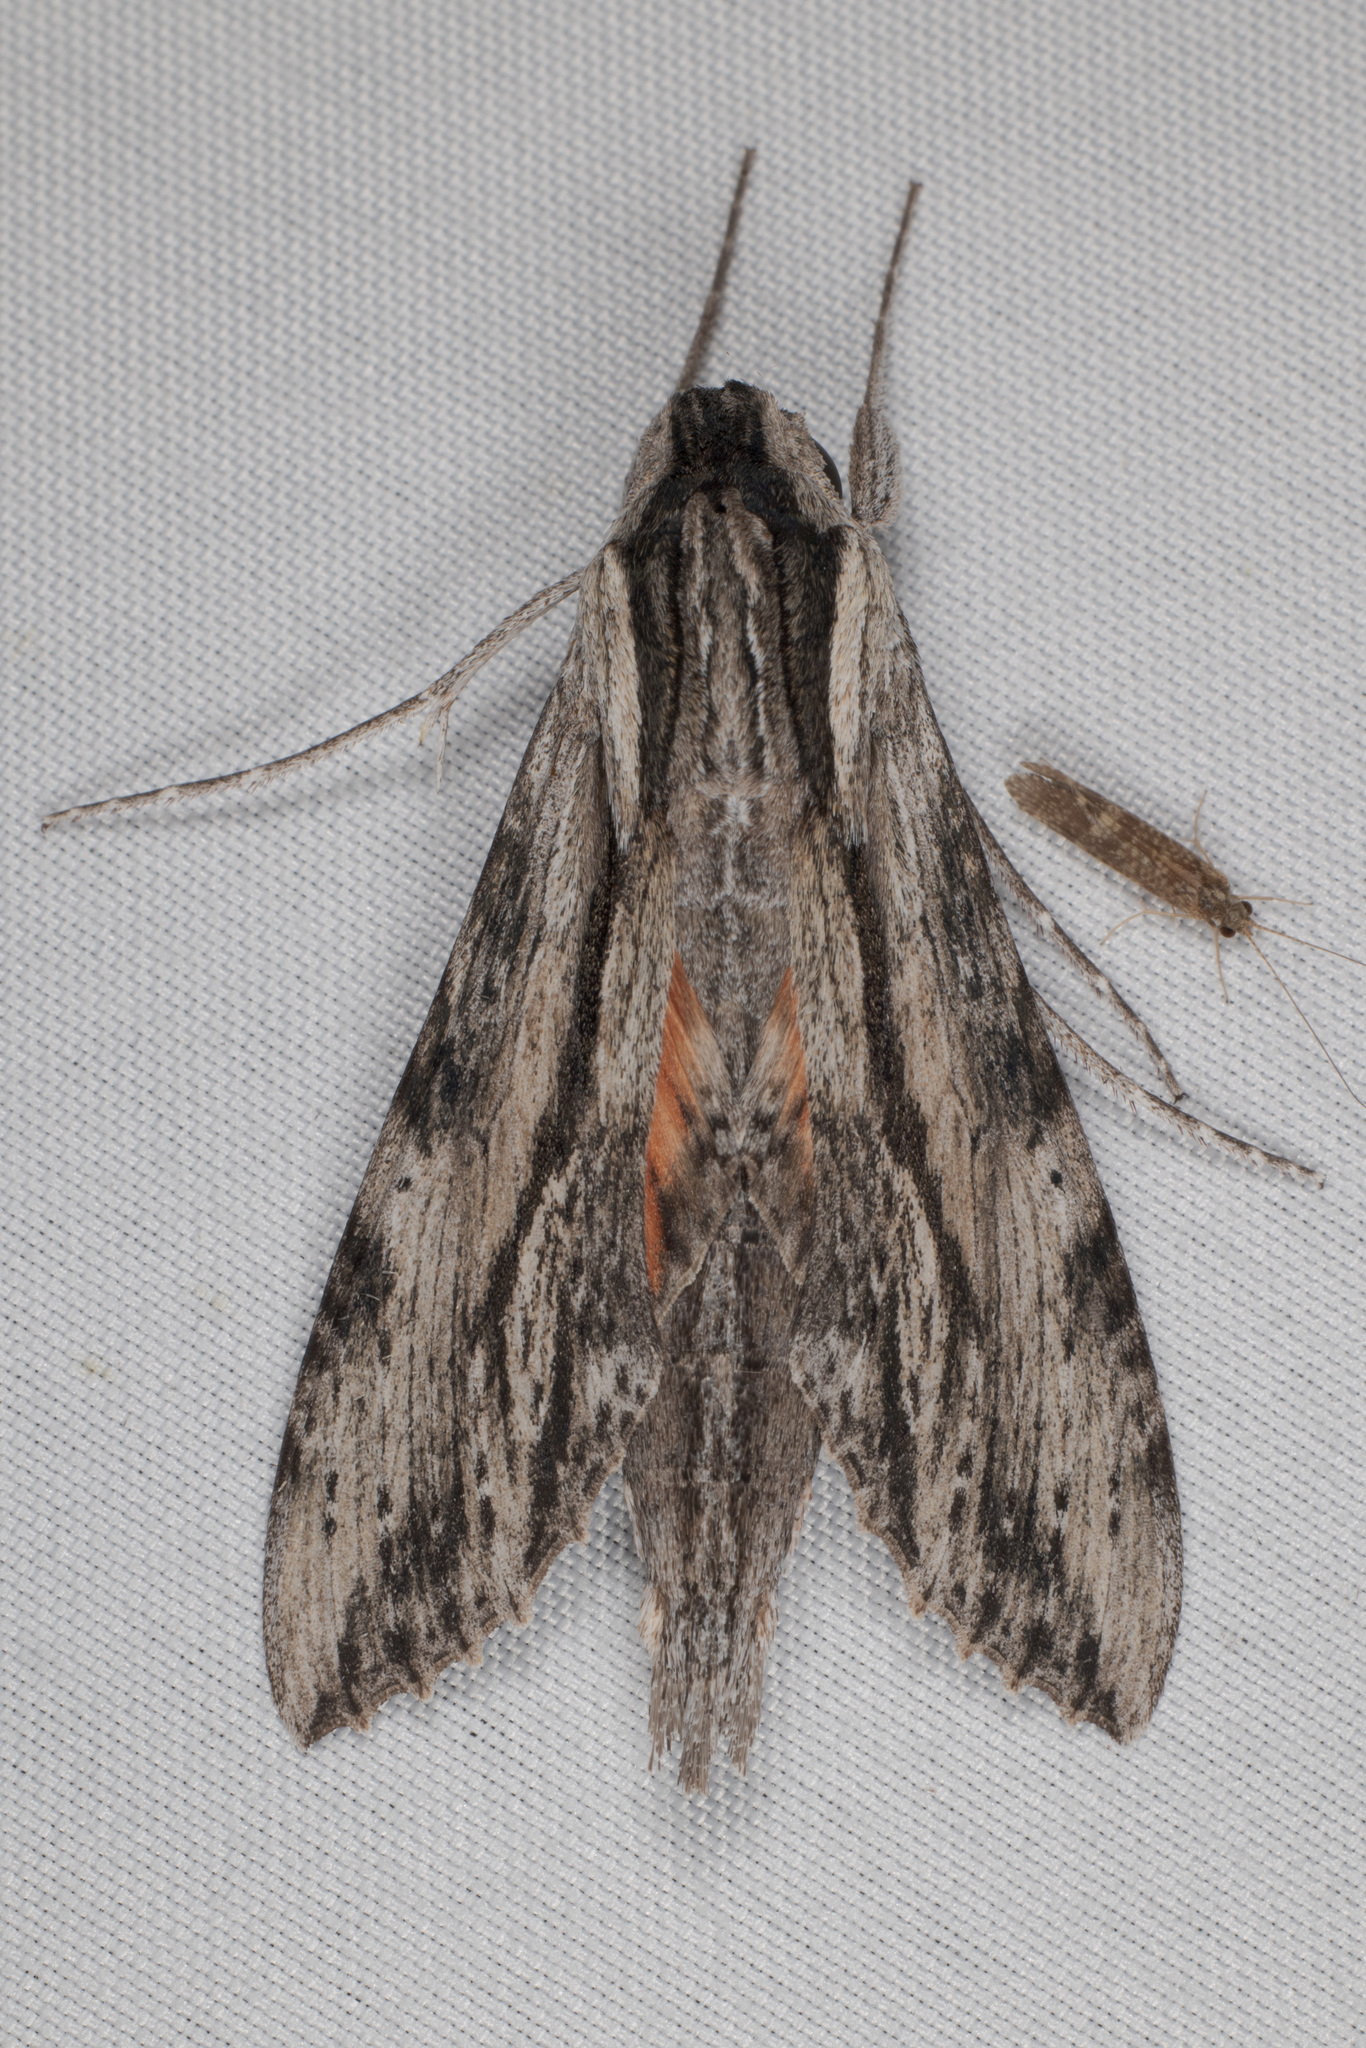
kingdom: Animalia
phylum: Arthropoda
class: Insecta
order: Lepidoptera
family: Sphingidae
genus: Erinnyis
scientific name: Erinnyis obscura
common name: Obscure sphinx
